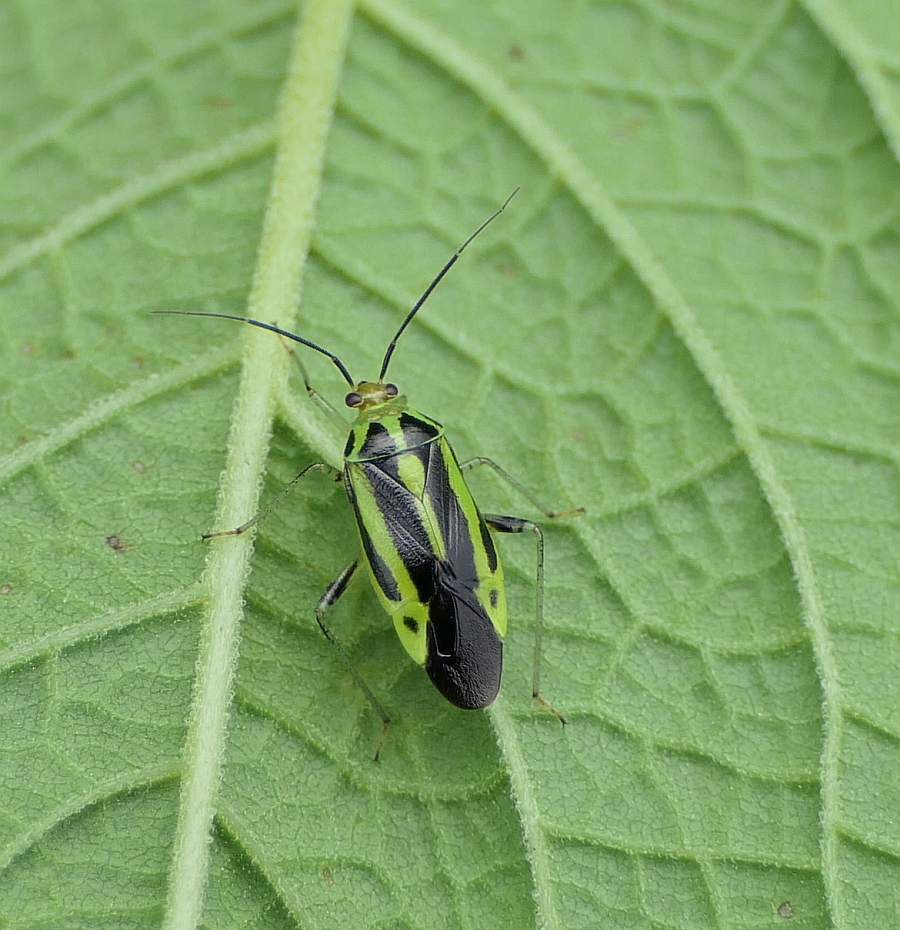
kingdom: Animalia
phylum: Arthropoda
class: Insecta
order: Hemiptera
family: Miridae
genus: Poecilocapsus
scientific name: Poecilocapsus lineatus
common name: Four-lined plant bug
